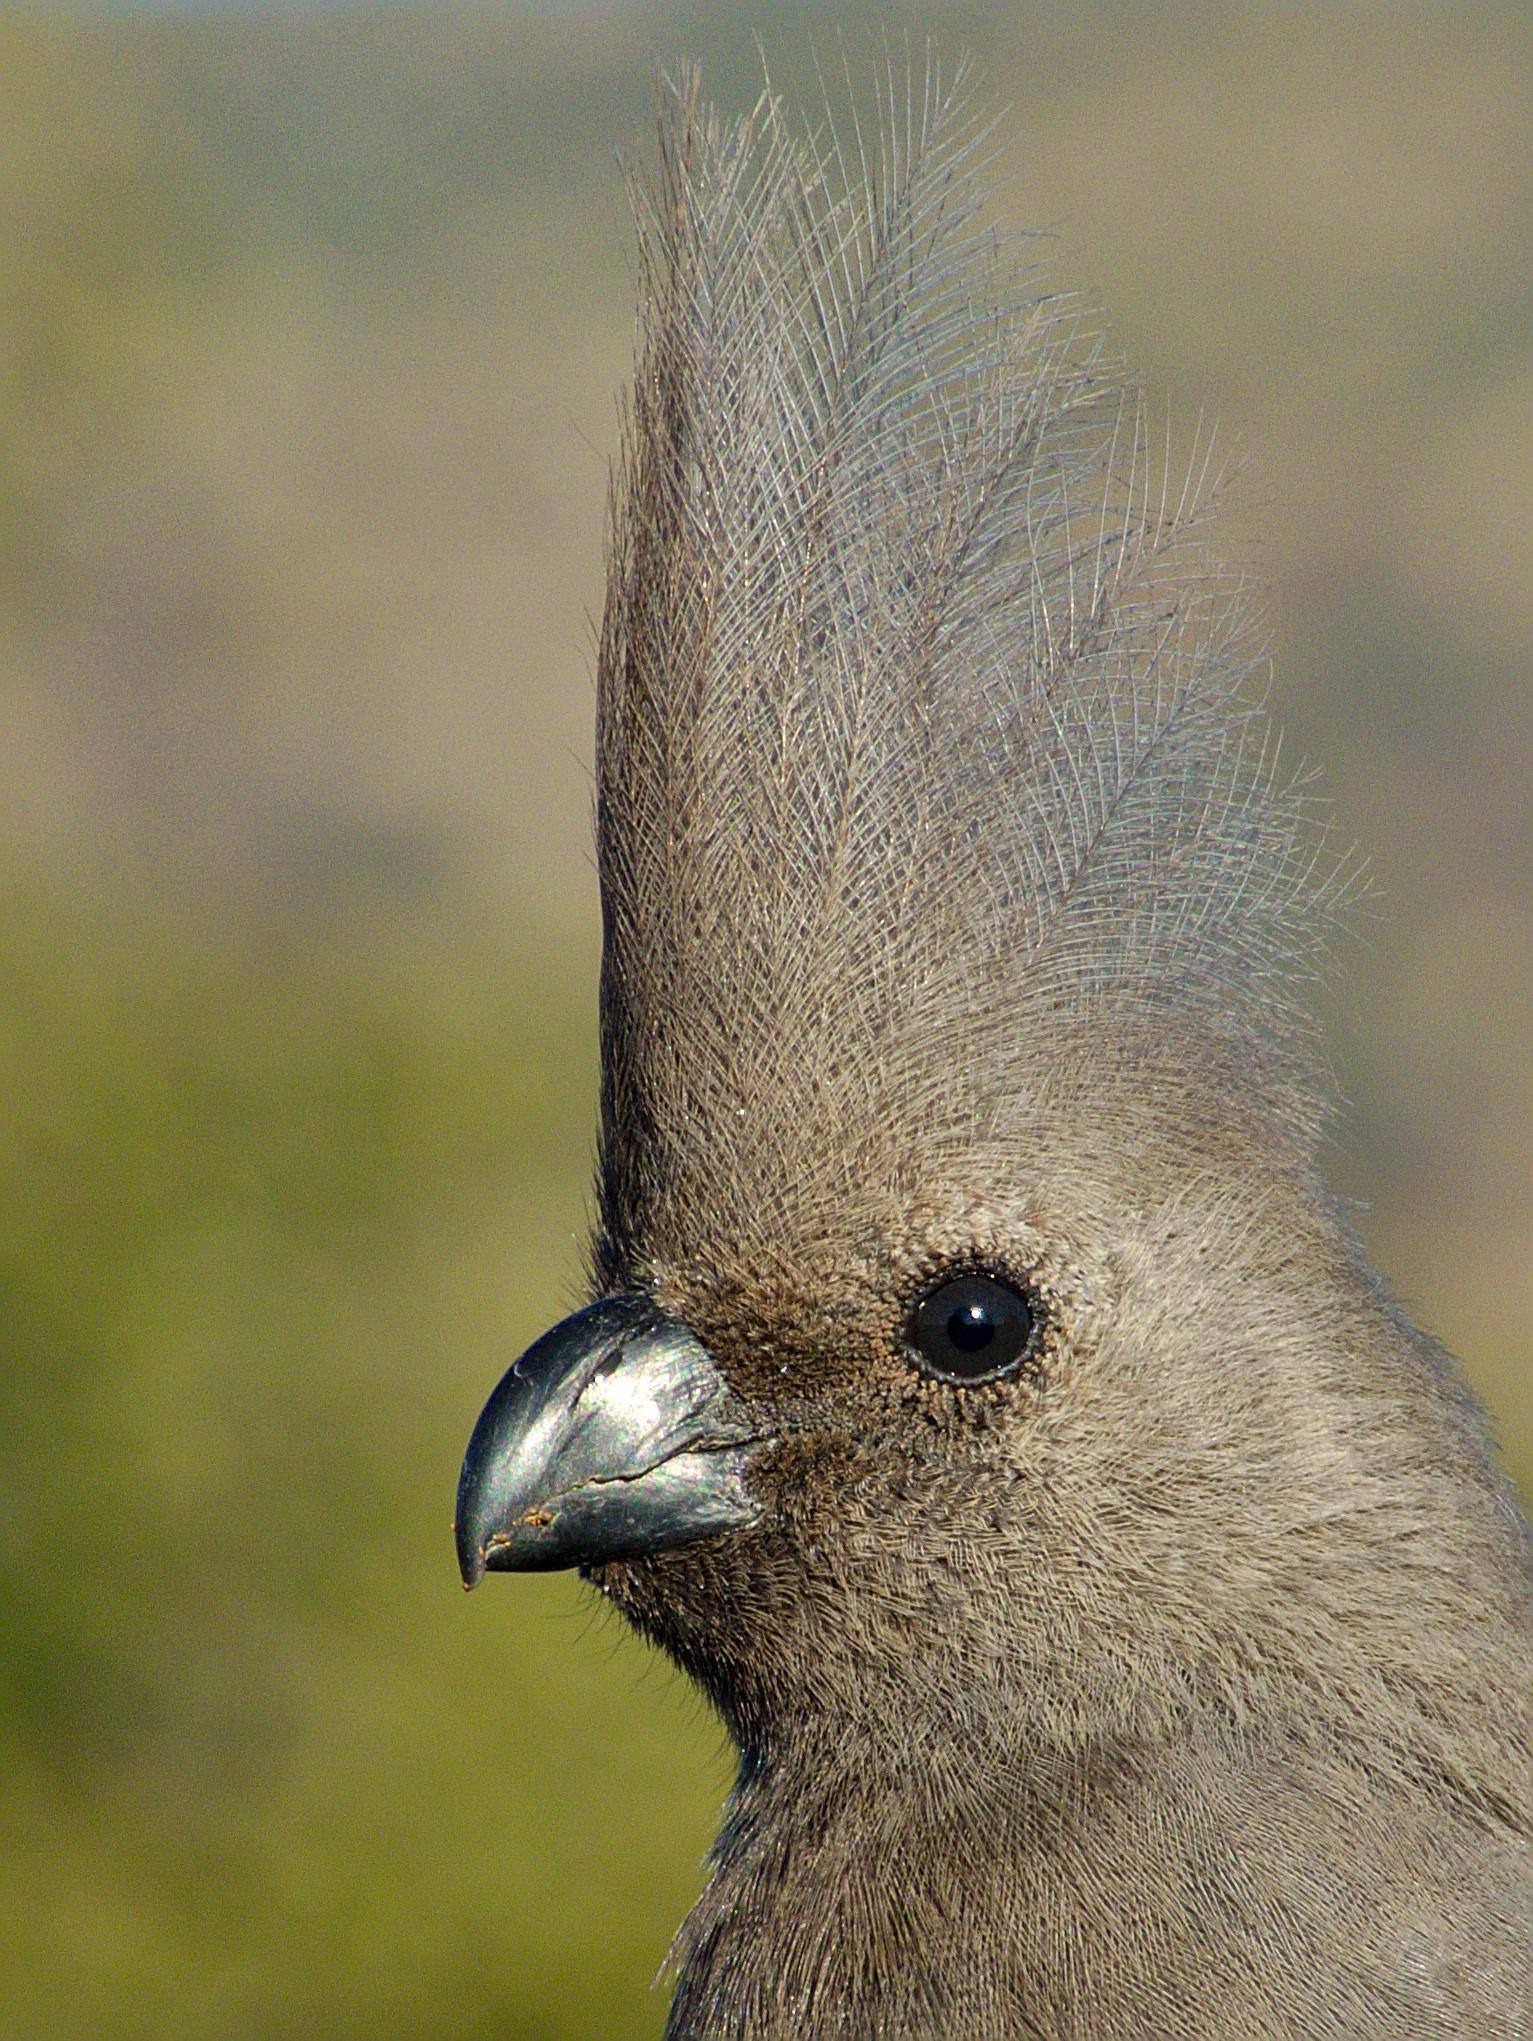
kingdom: Animalia
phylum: Chordata
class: Aves
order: Musophagiformes
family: Musophagidae
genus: Corythaixoides
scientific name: Corythaixoides concolor
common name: Grey go-away-bird
